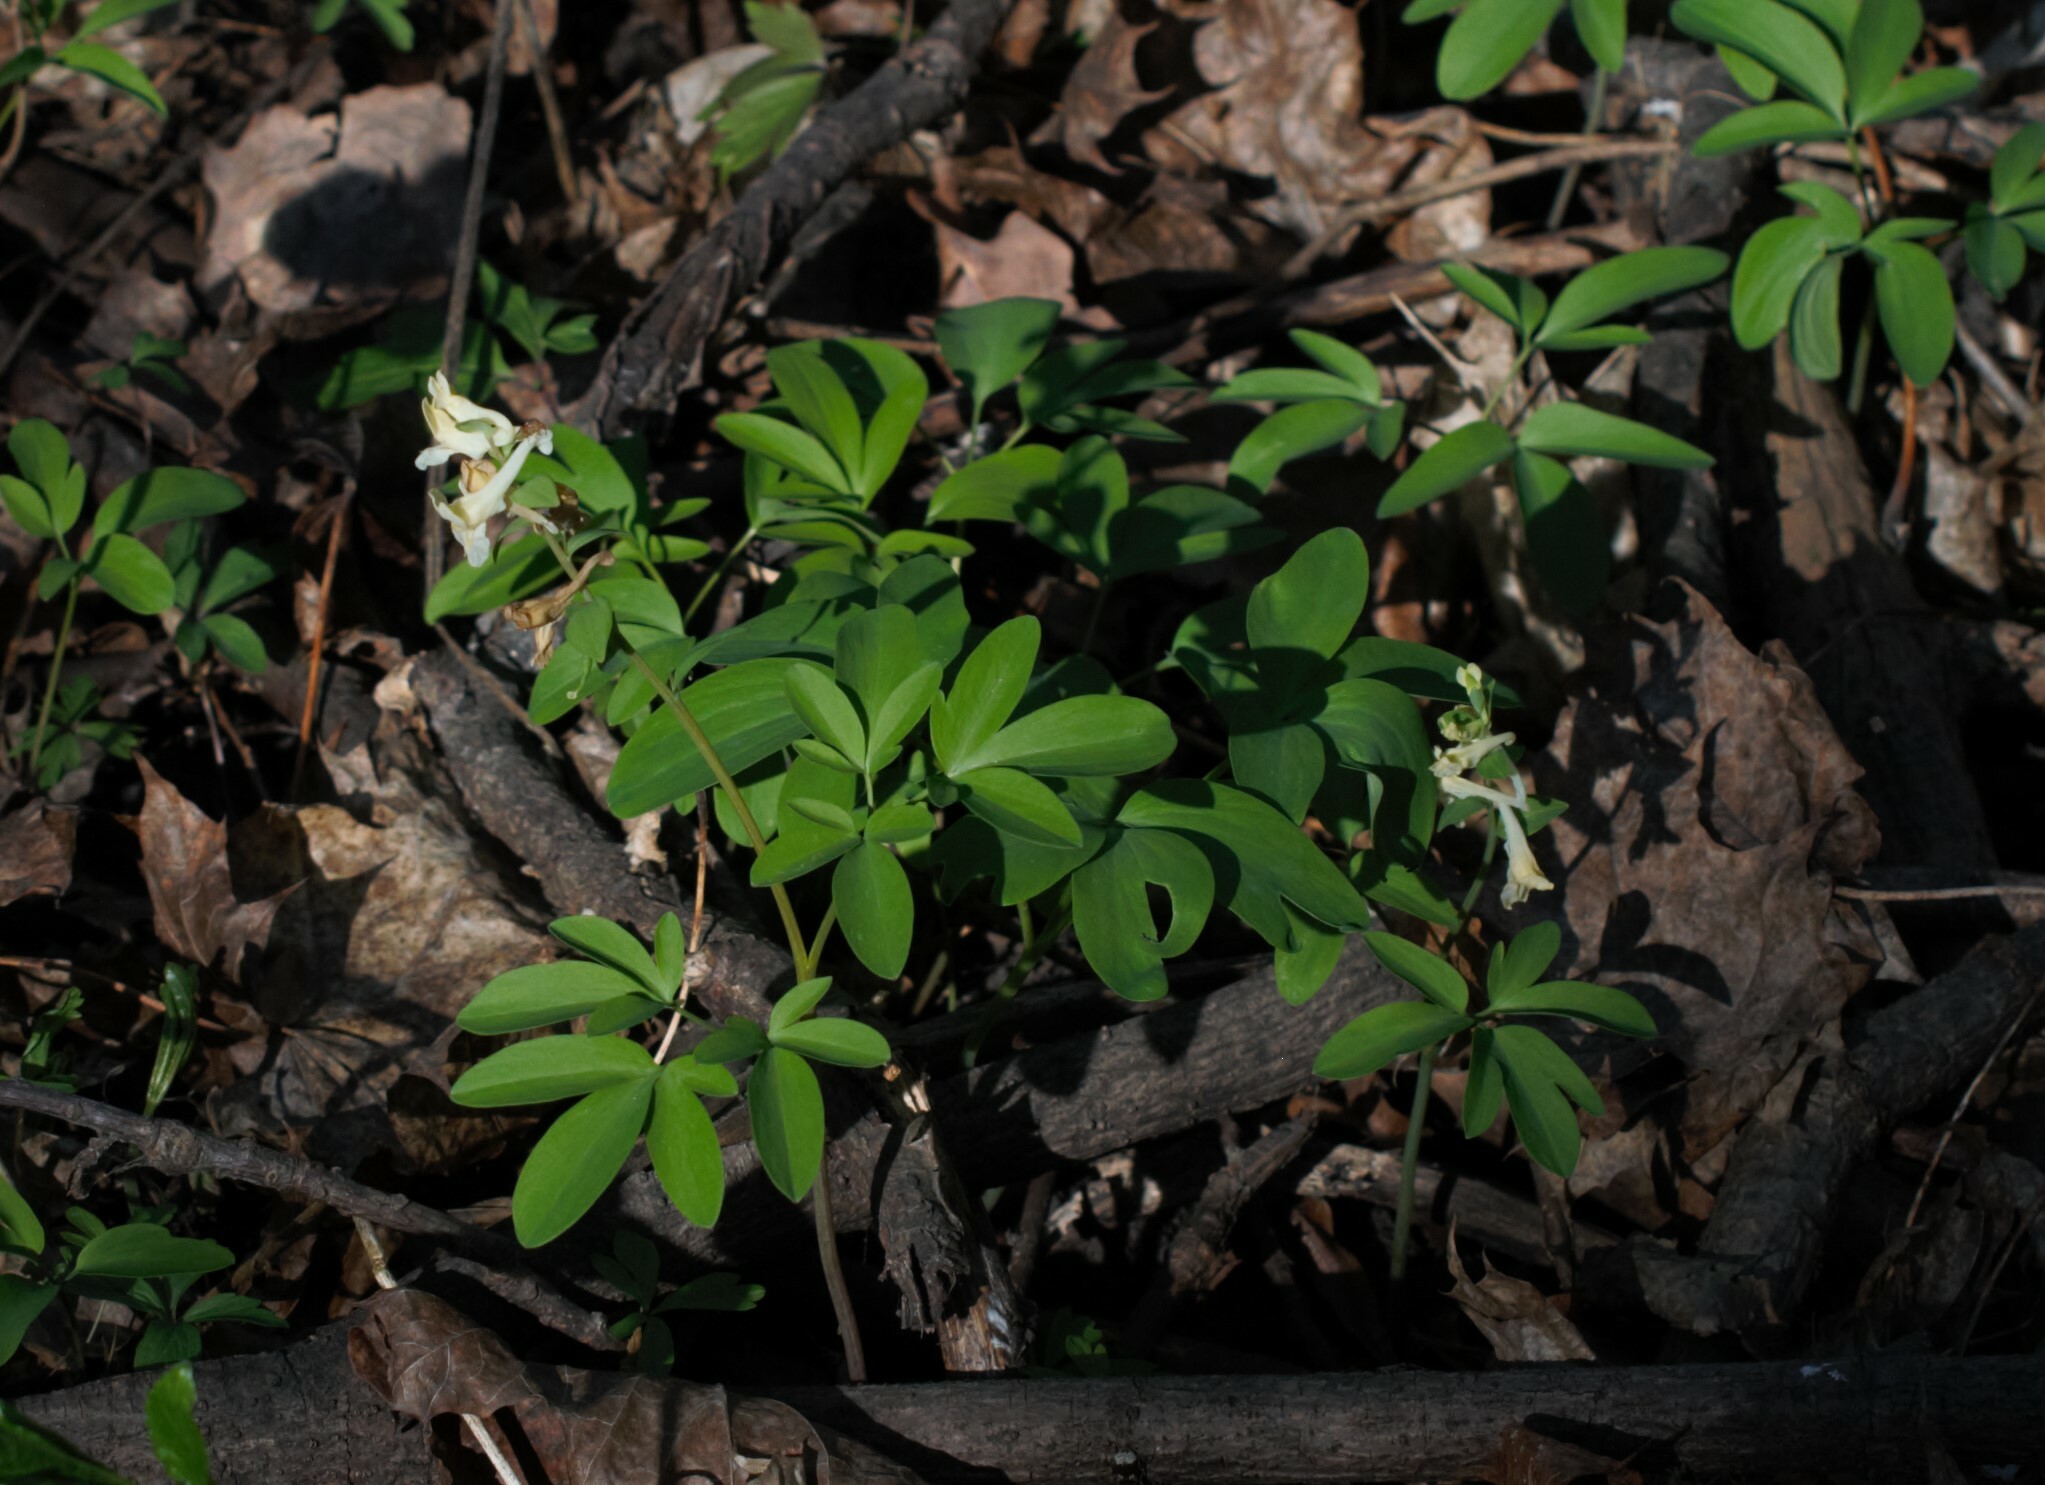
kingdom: Plantae
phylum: Tracheophyta
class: Magnoliopsida
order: Ranunculales
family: Papaveraceae
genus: Corydalis
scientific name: Corydalis cava
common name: Hollowroot
